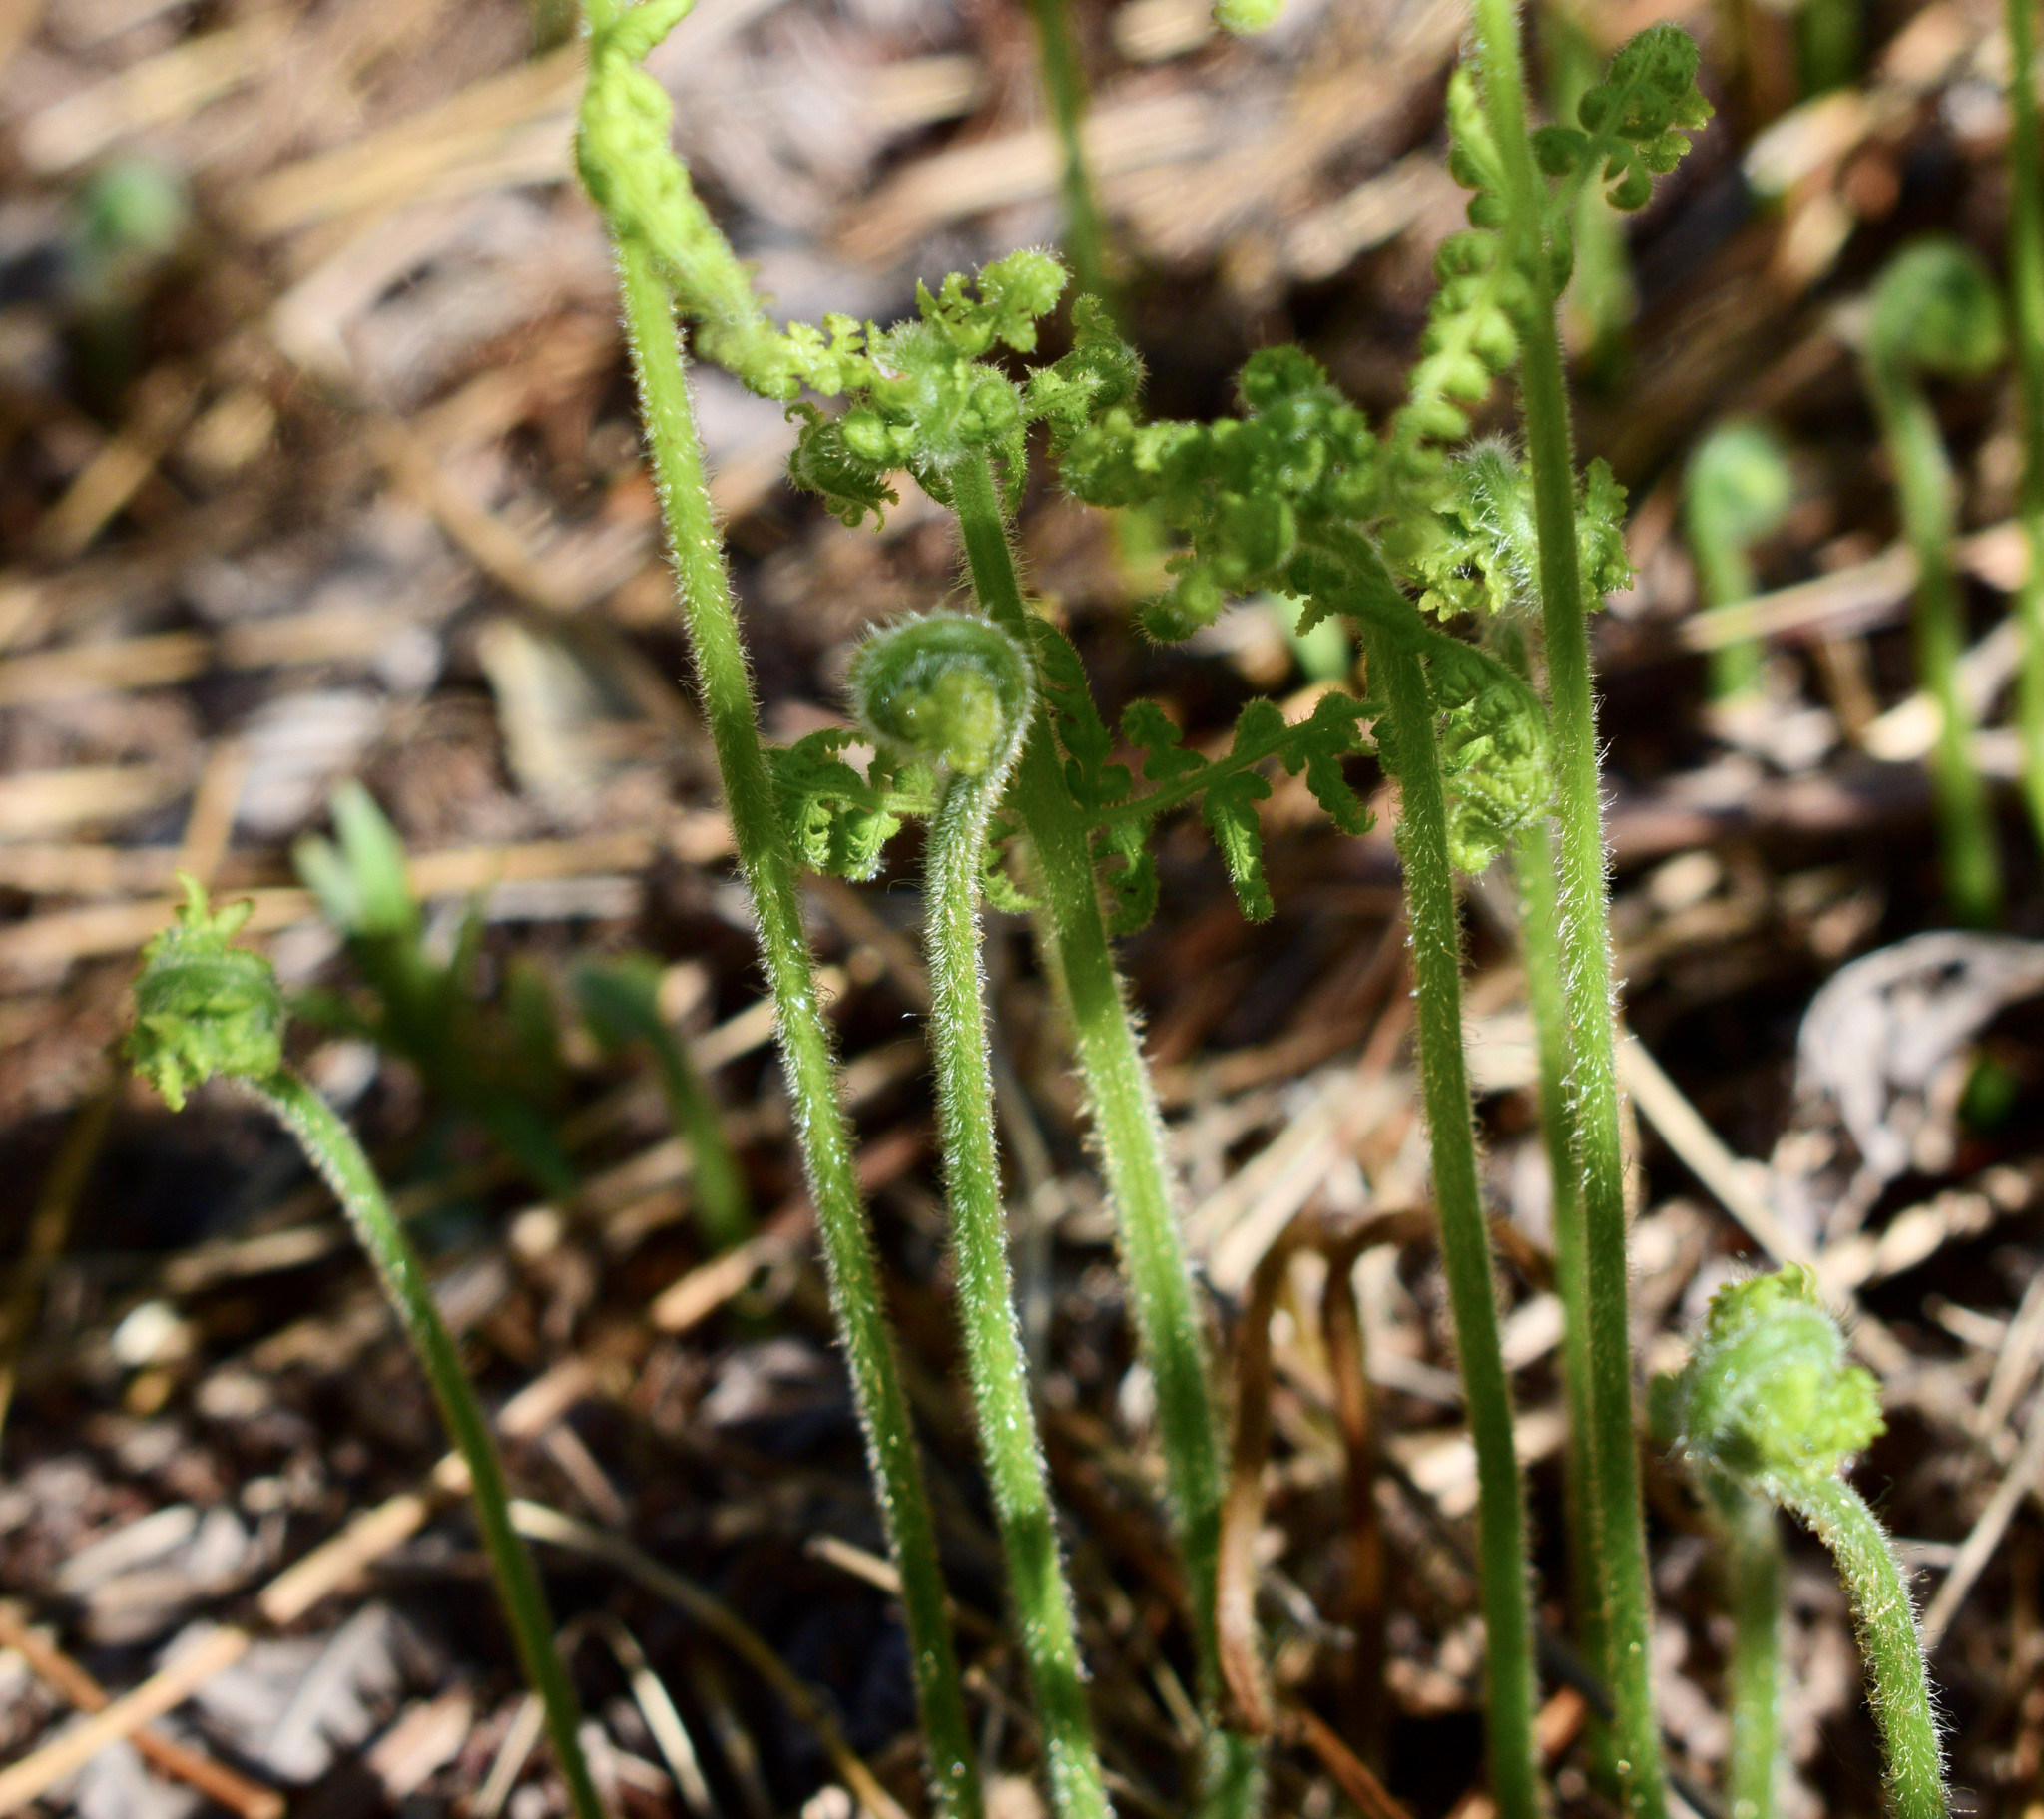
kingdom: Plantae
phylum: Tracheophyta
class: Polypodiopsida
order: Polypodiales
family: Dennstaedtiaceae
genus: Sitobolium
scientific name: Sitobolium punctilobum
